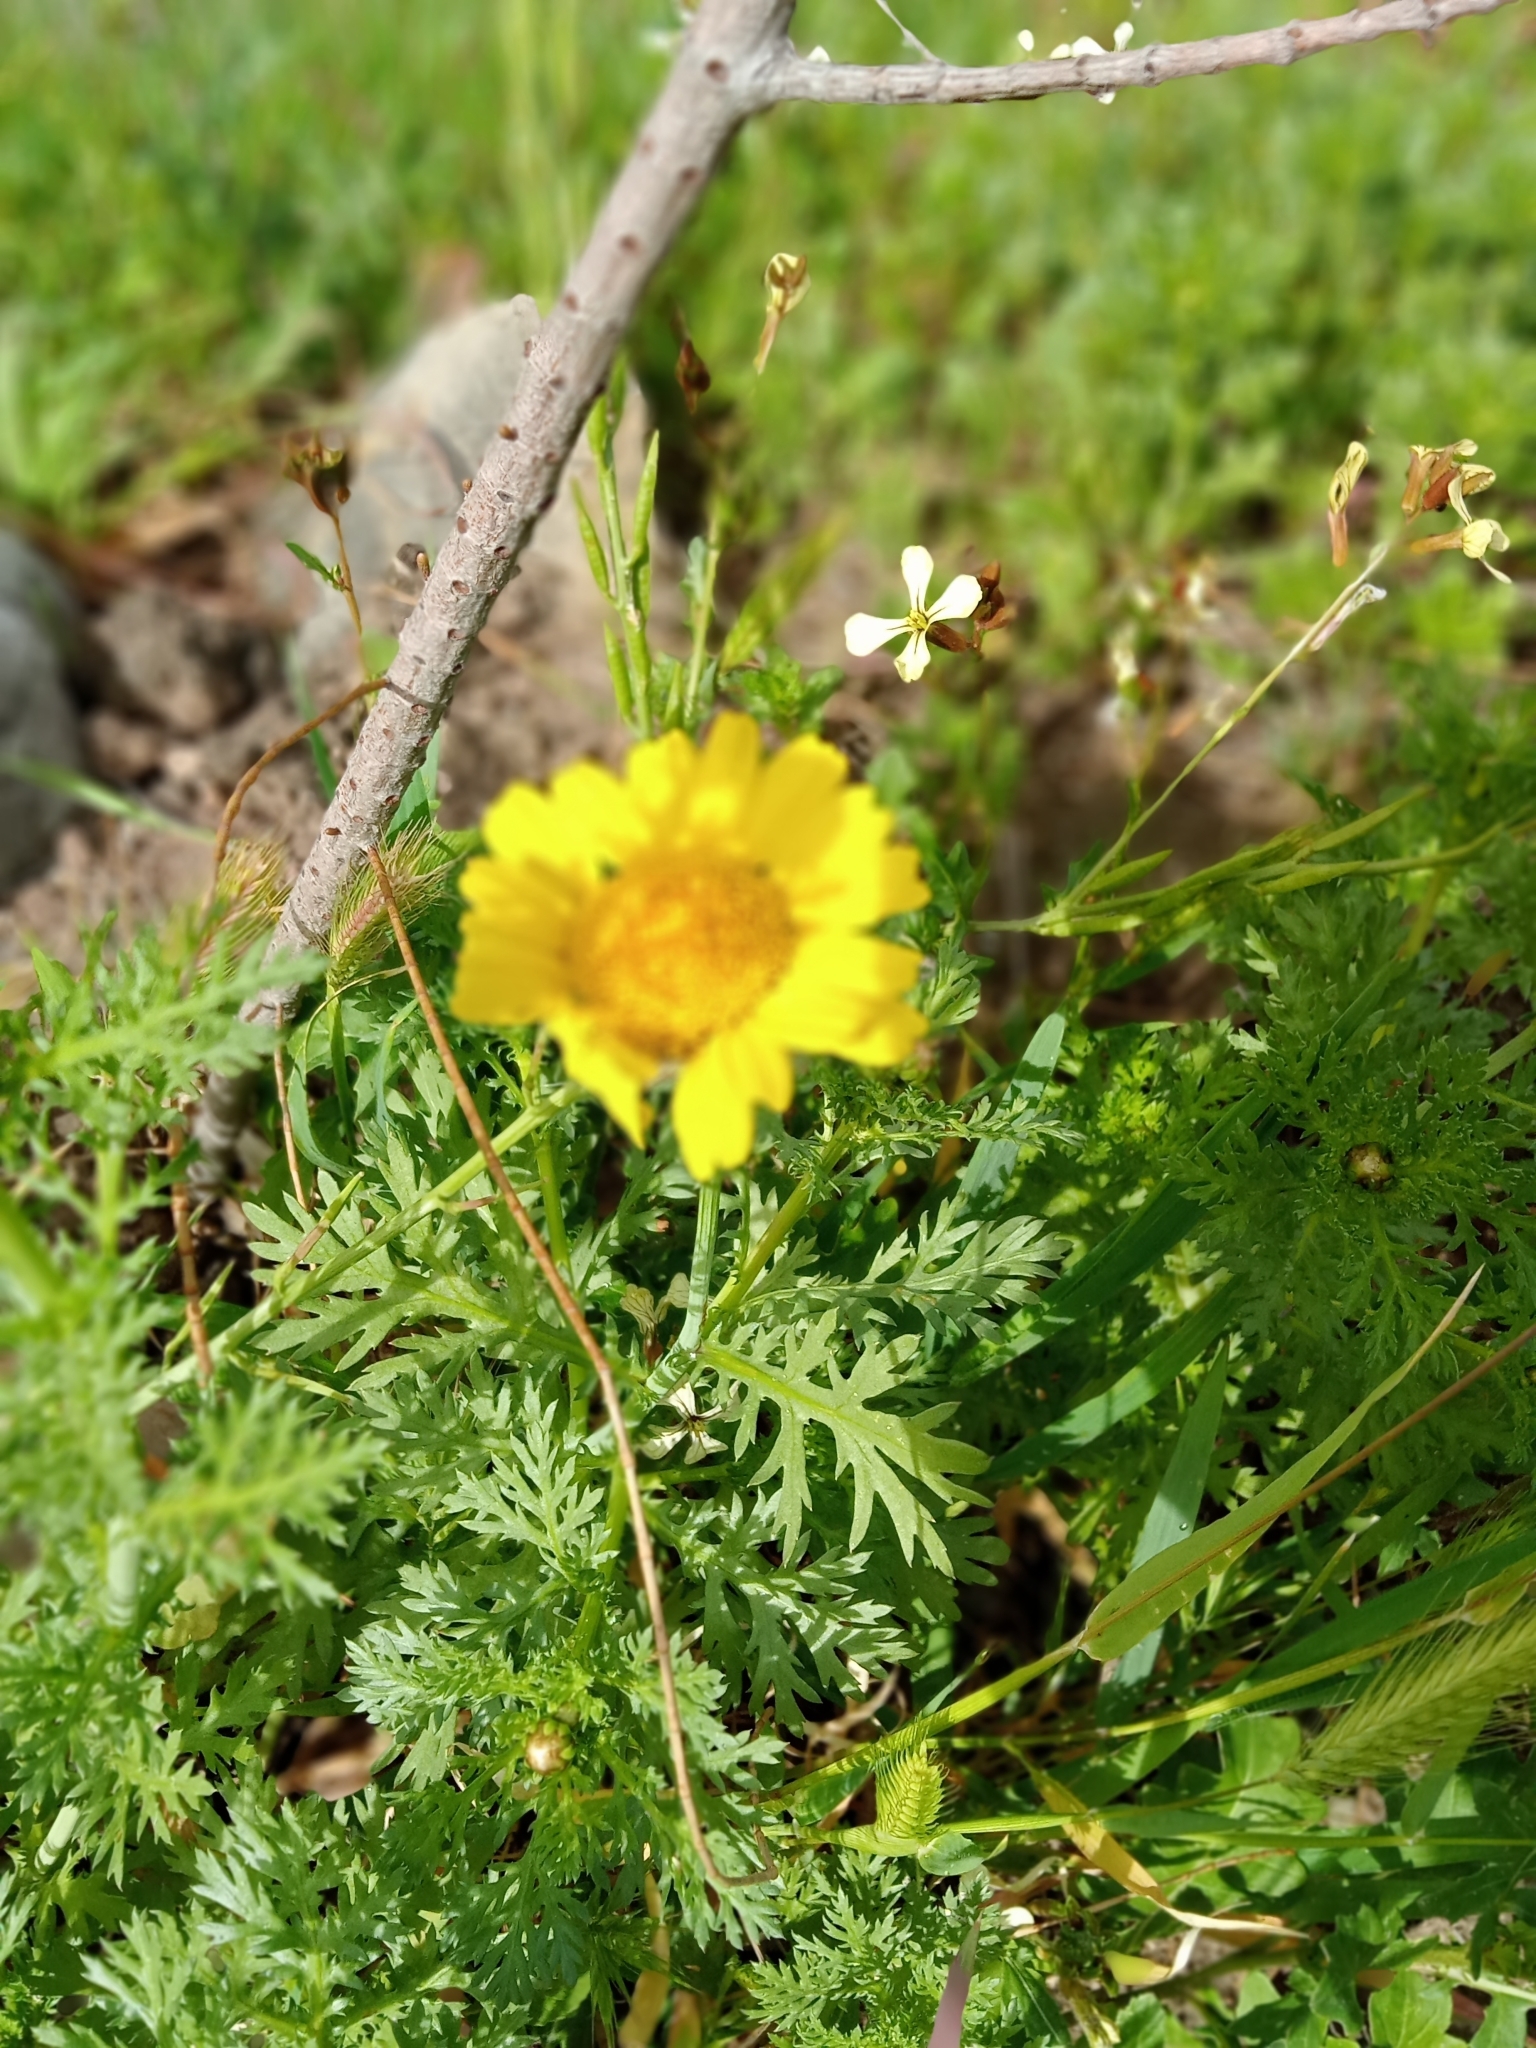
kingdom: Plantae
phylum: Tracheophyta
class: Magnoliopsida
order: Asterales
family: Asteraceae
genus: Glebionis
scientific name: Glebionis coronaria
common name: Crowndaisy
